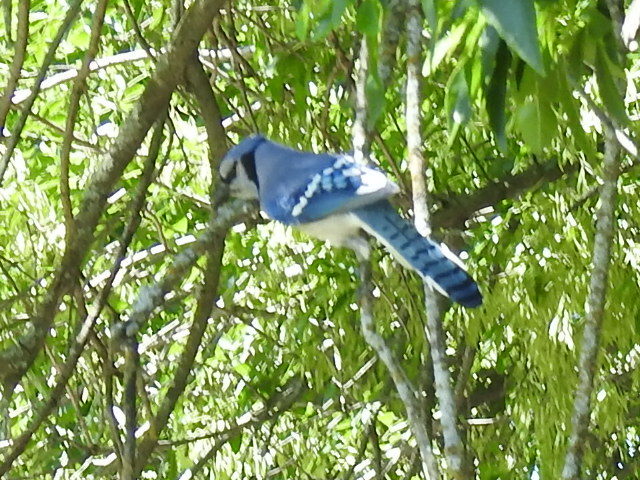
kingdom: Animalia
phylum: Chordata
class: Aves
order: Passeriformes
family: Corvidae
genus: Cyanocitta
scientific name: Cyanocitta cristata
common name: Blue jay
